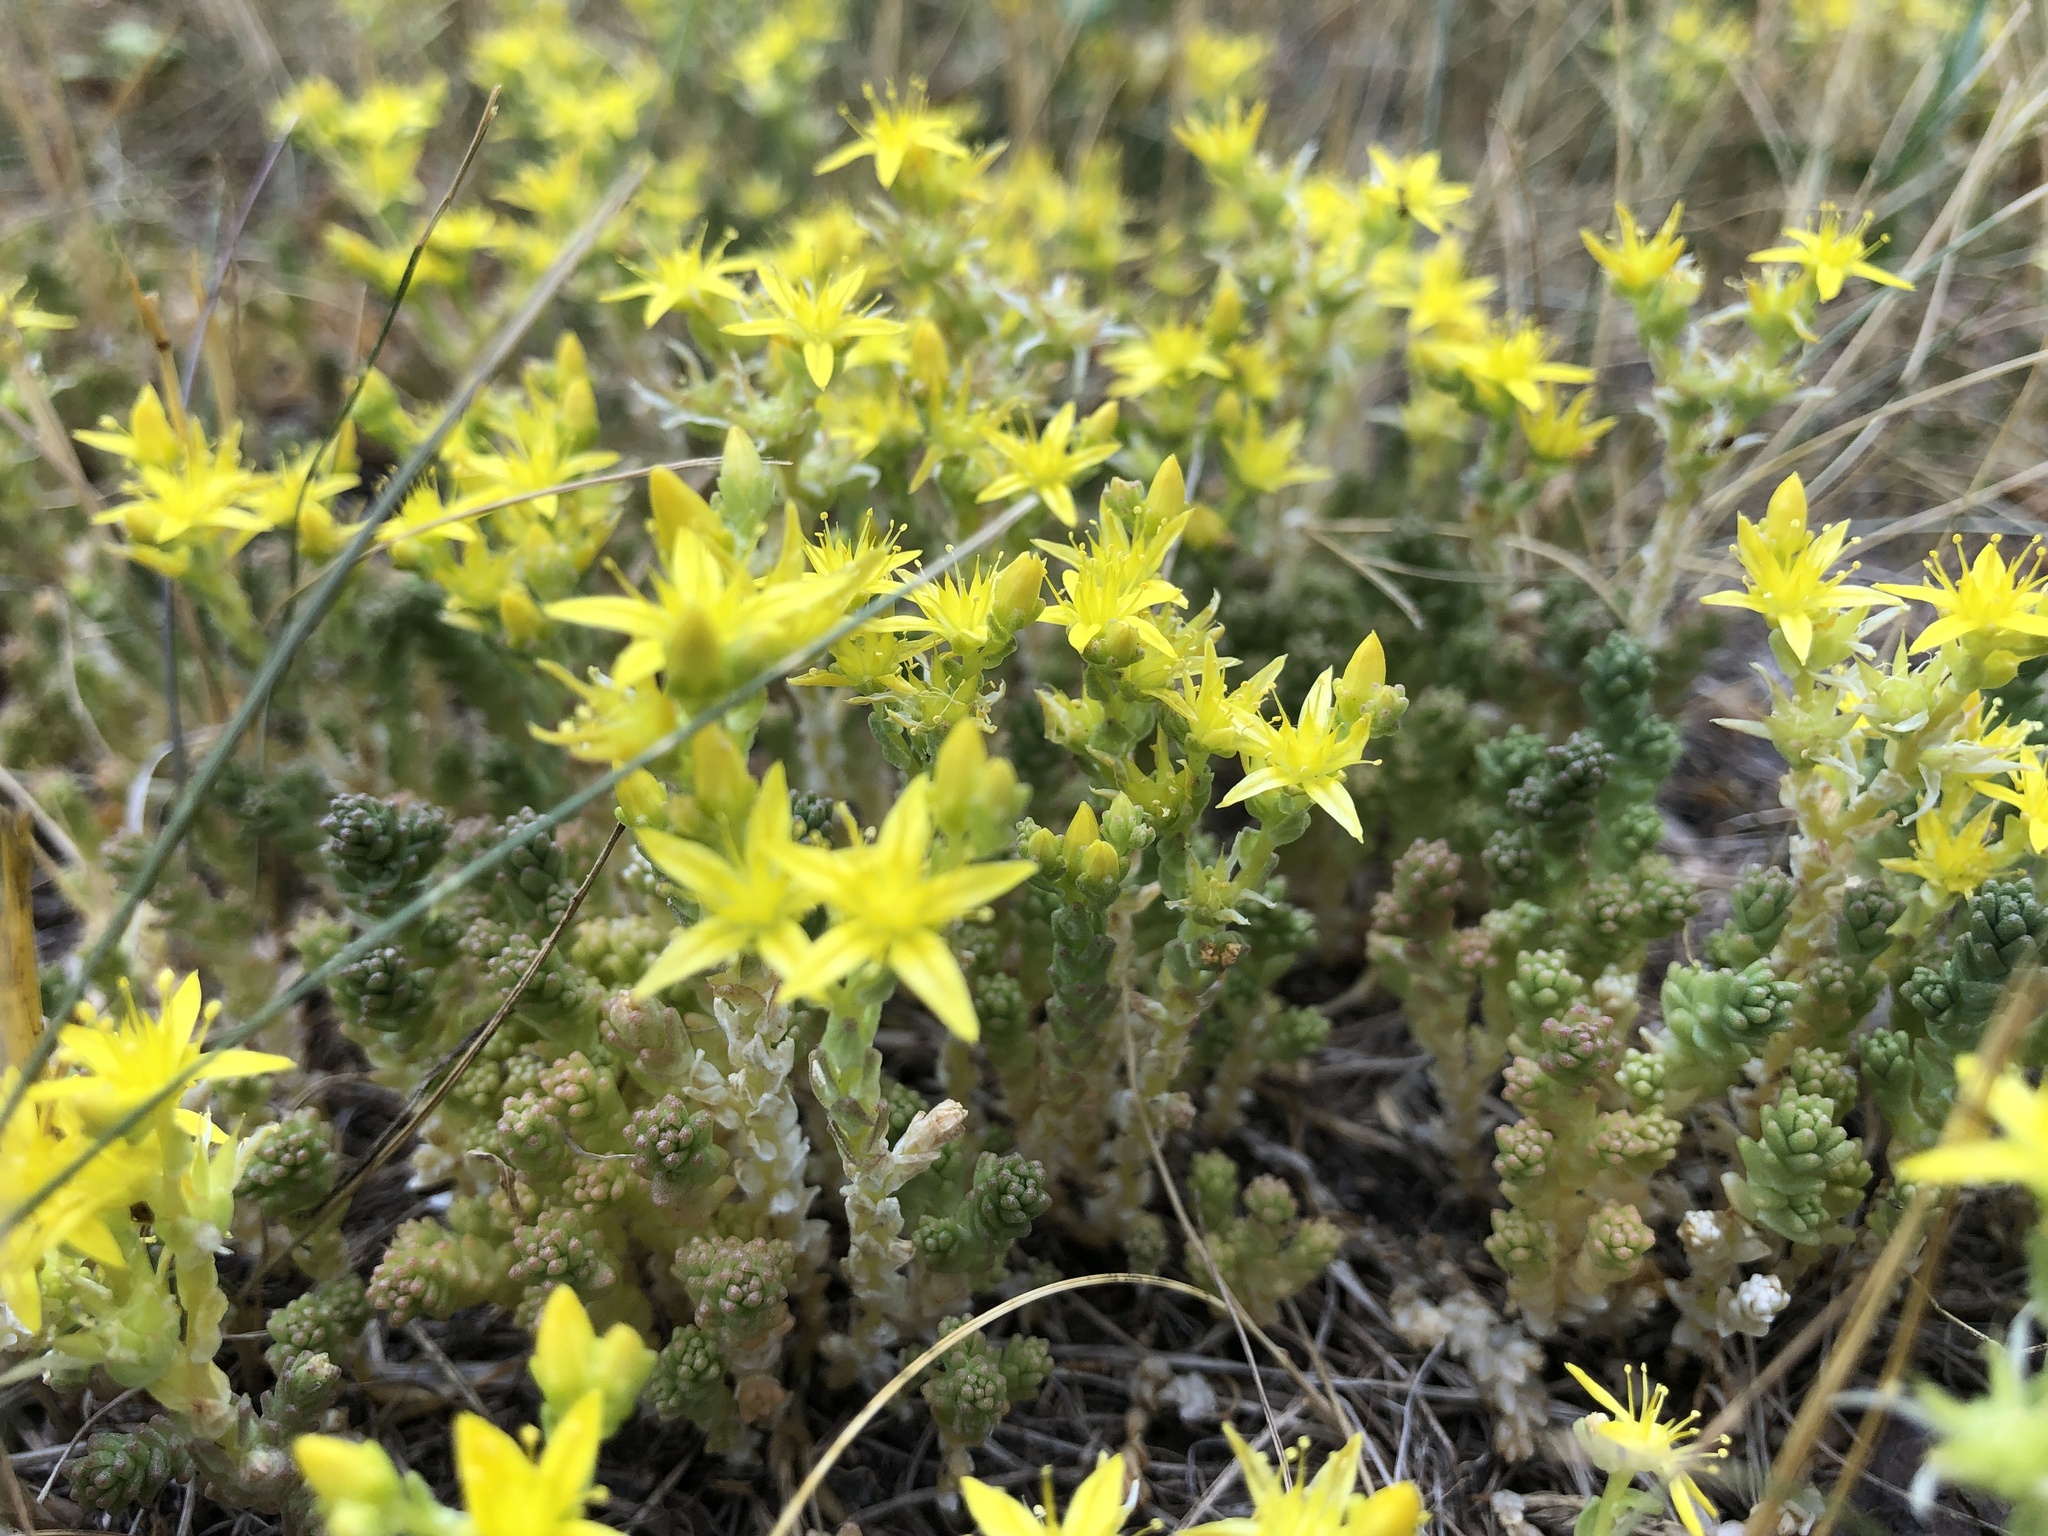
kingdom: Plantae
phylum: Tracheophyta
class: Magnoliopsida
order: Saxifragales
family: Crassulaceae
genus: Sedum
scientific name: Sedum acre
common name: Biting stonecrop
